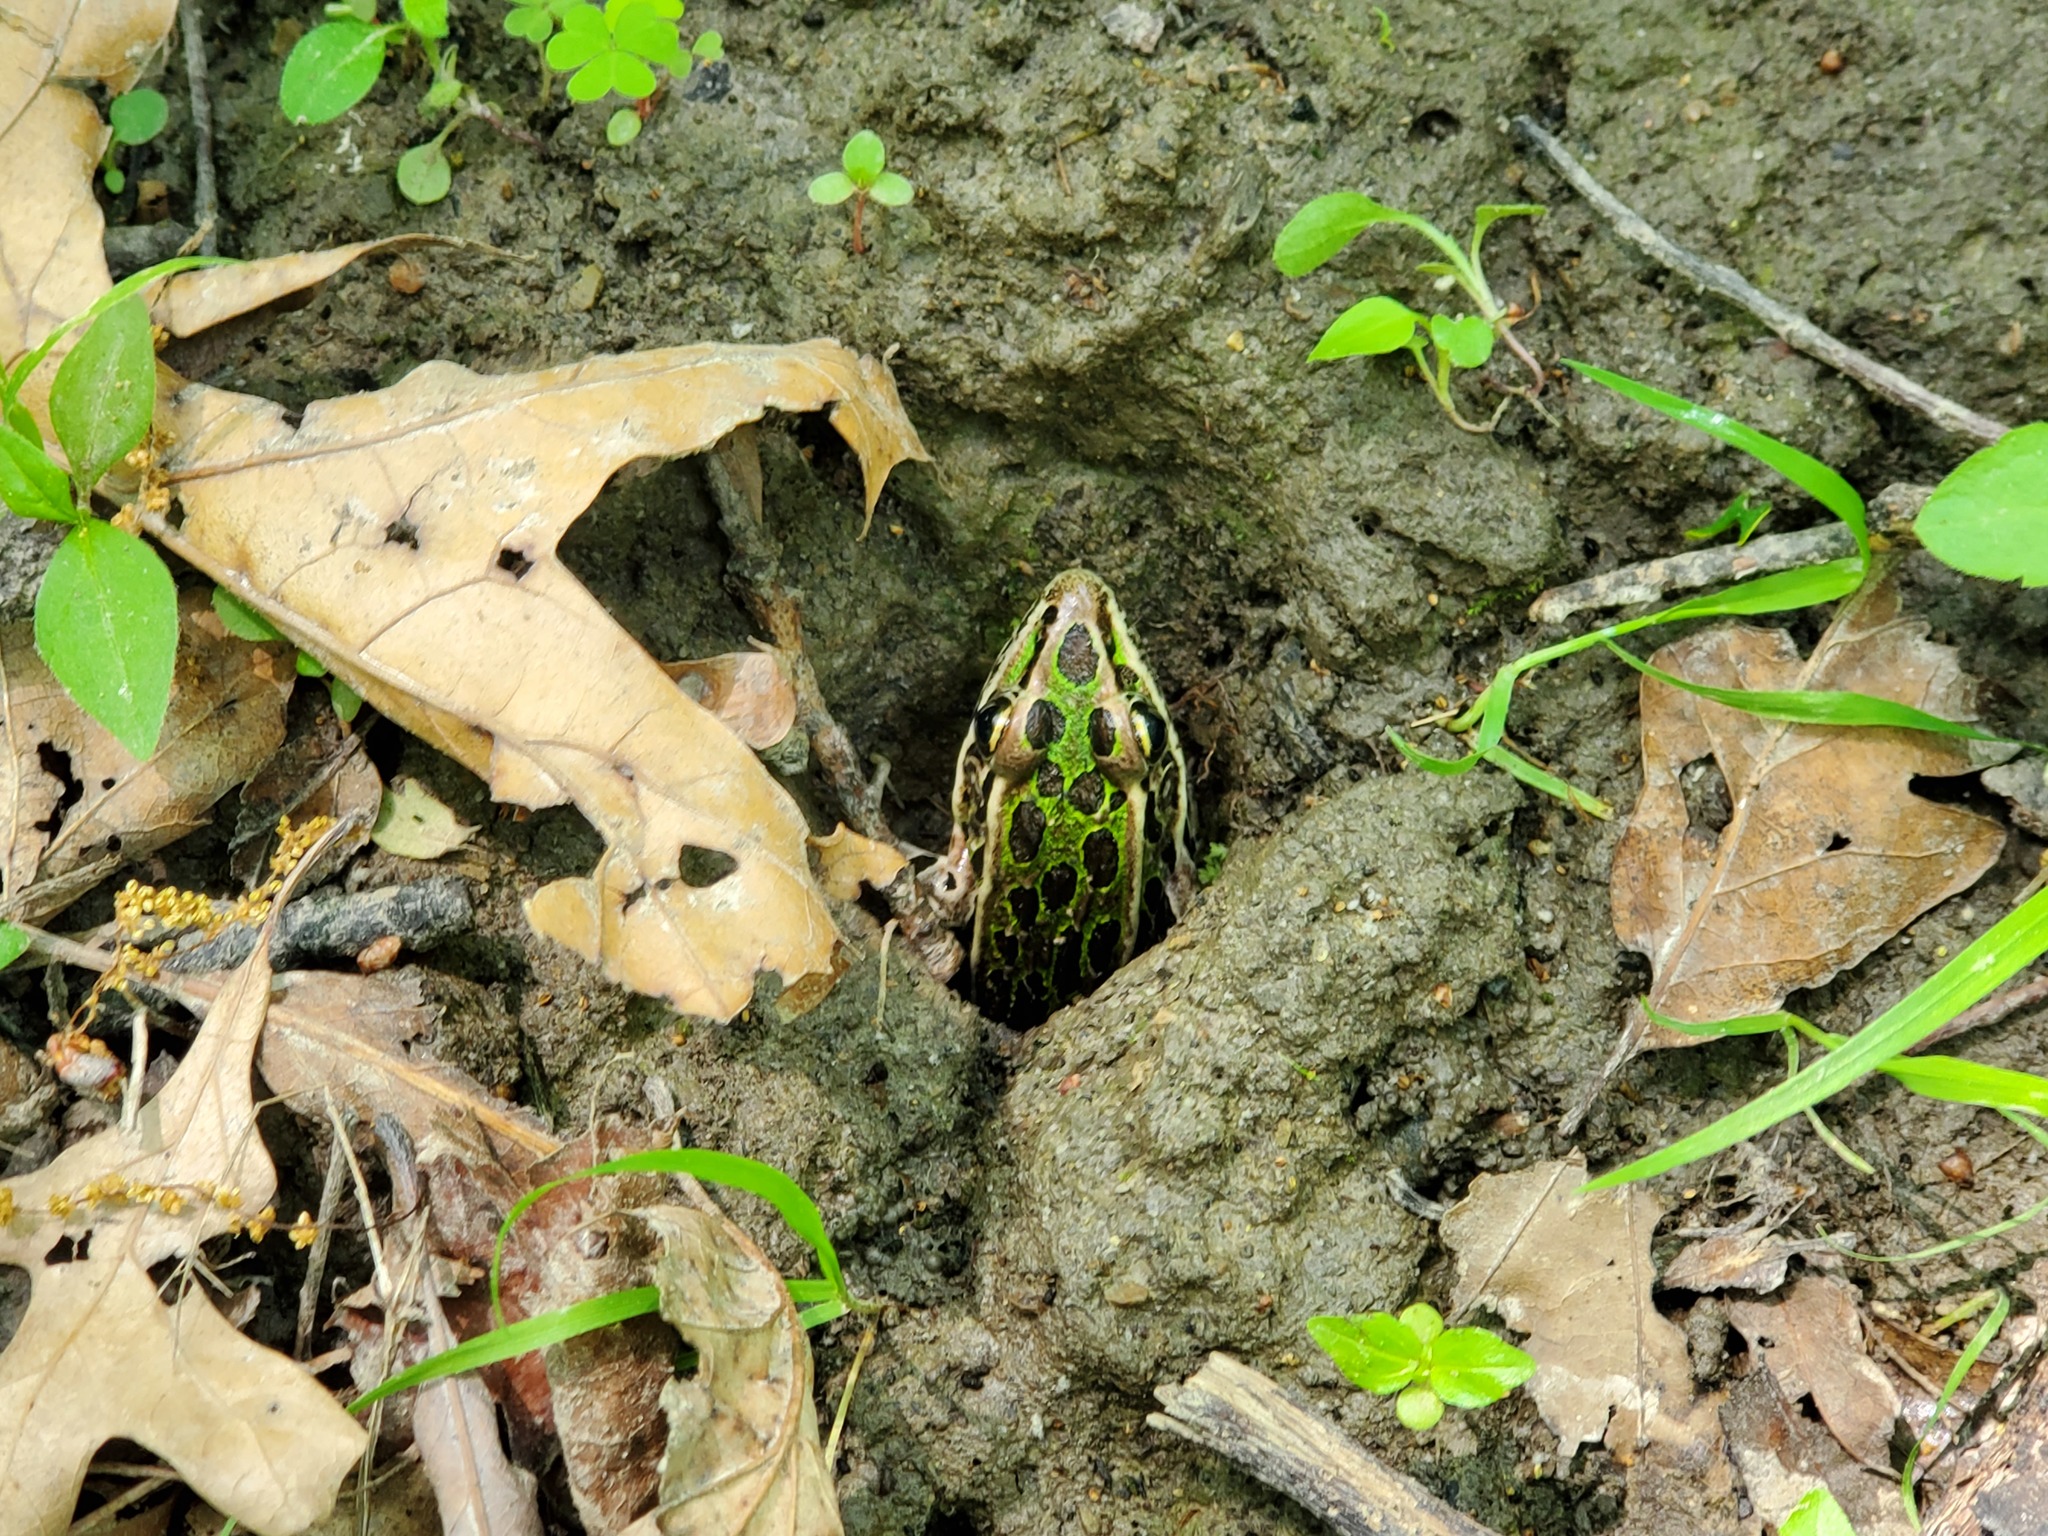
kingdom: Animalia
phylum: Chordata
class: Amphibia
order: Anura
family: Ranidae
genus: Lithobates
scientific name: Lithobates pipiens
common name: Northern leopard frog
